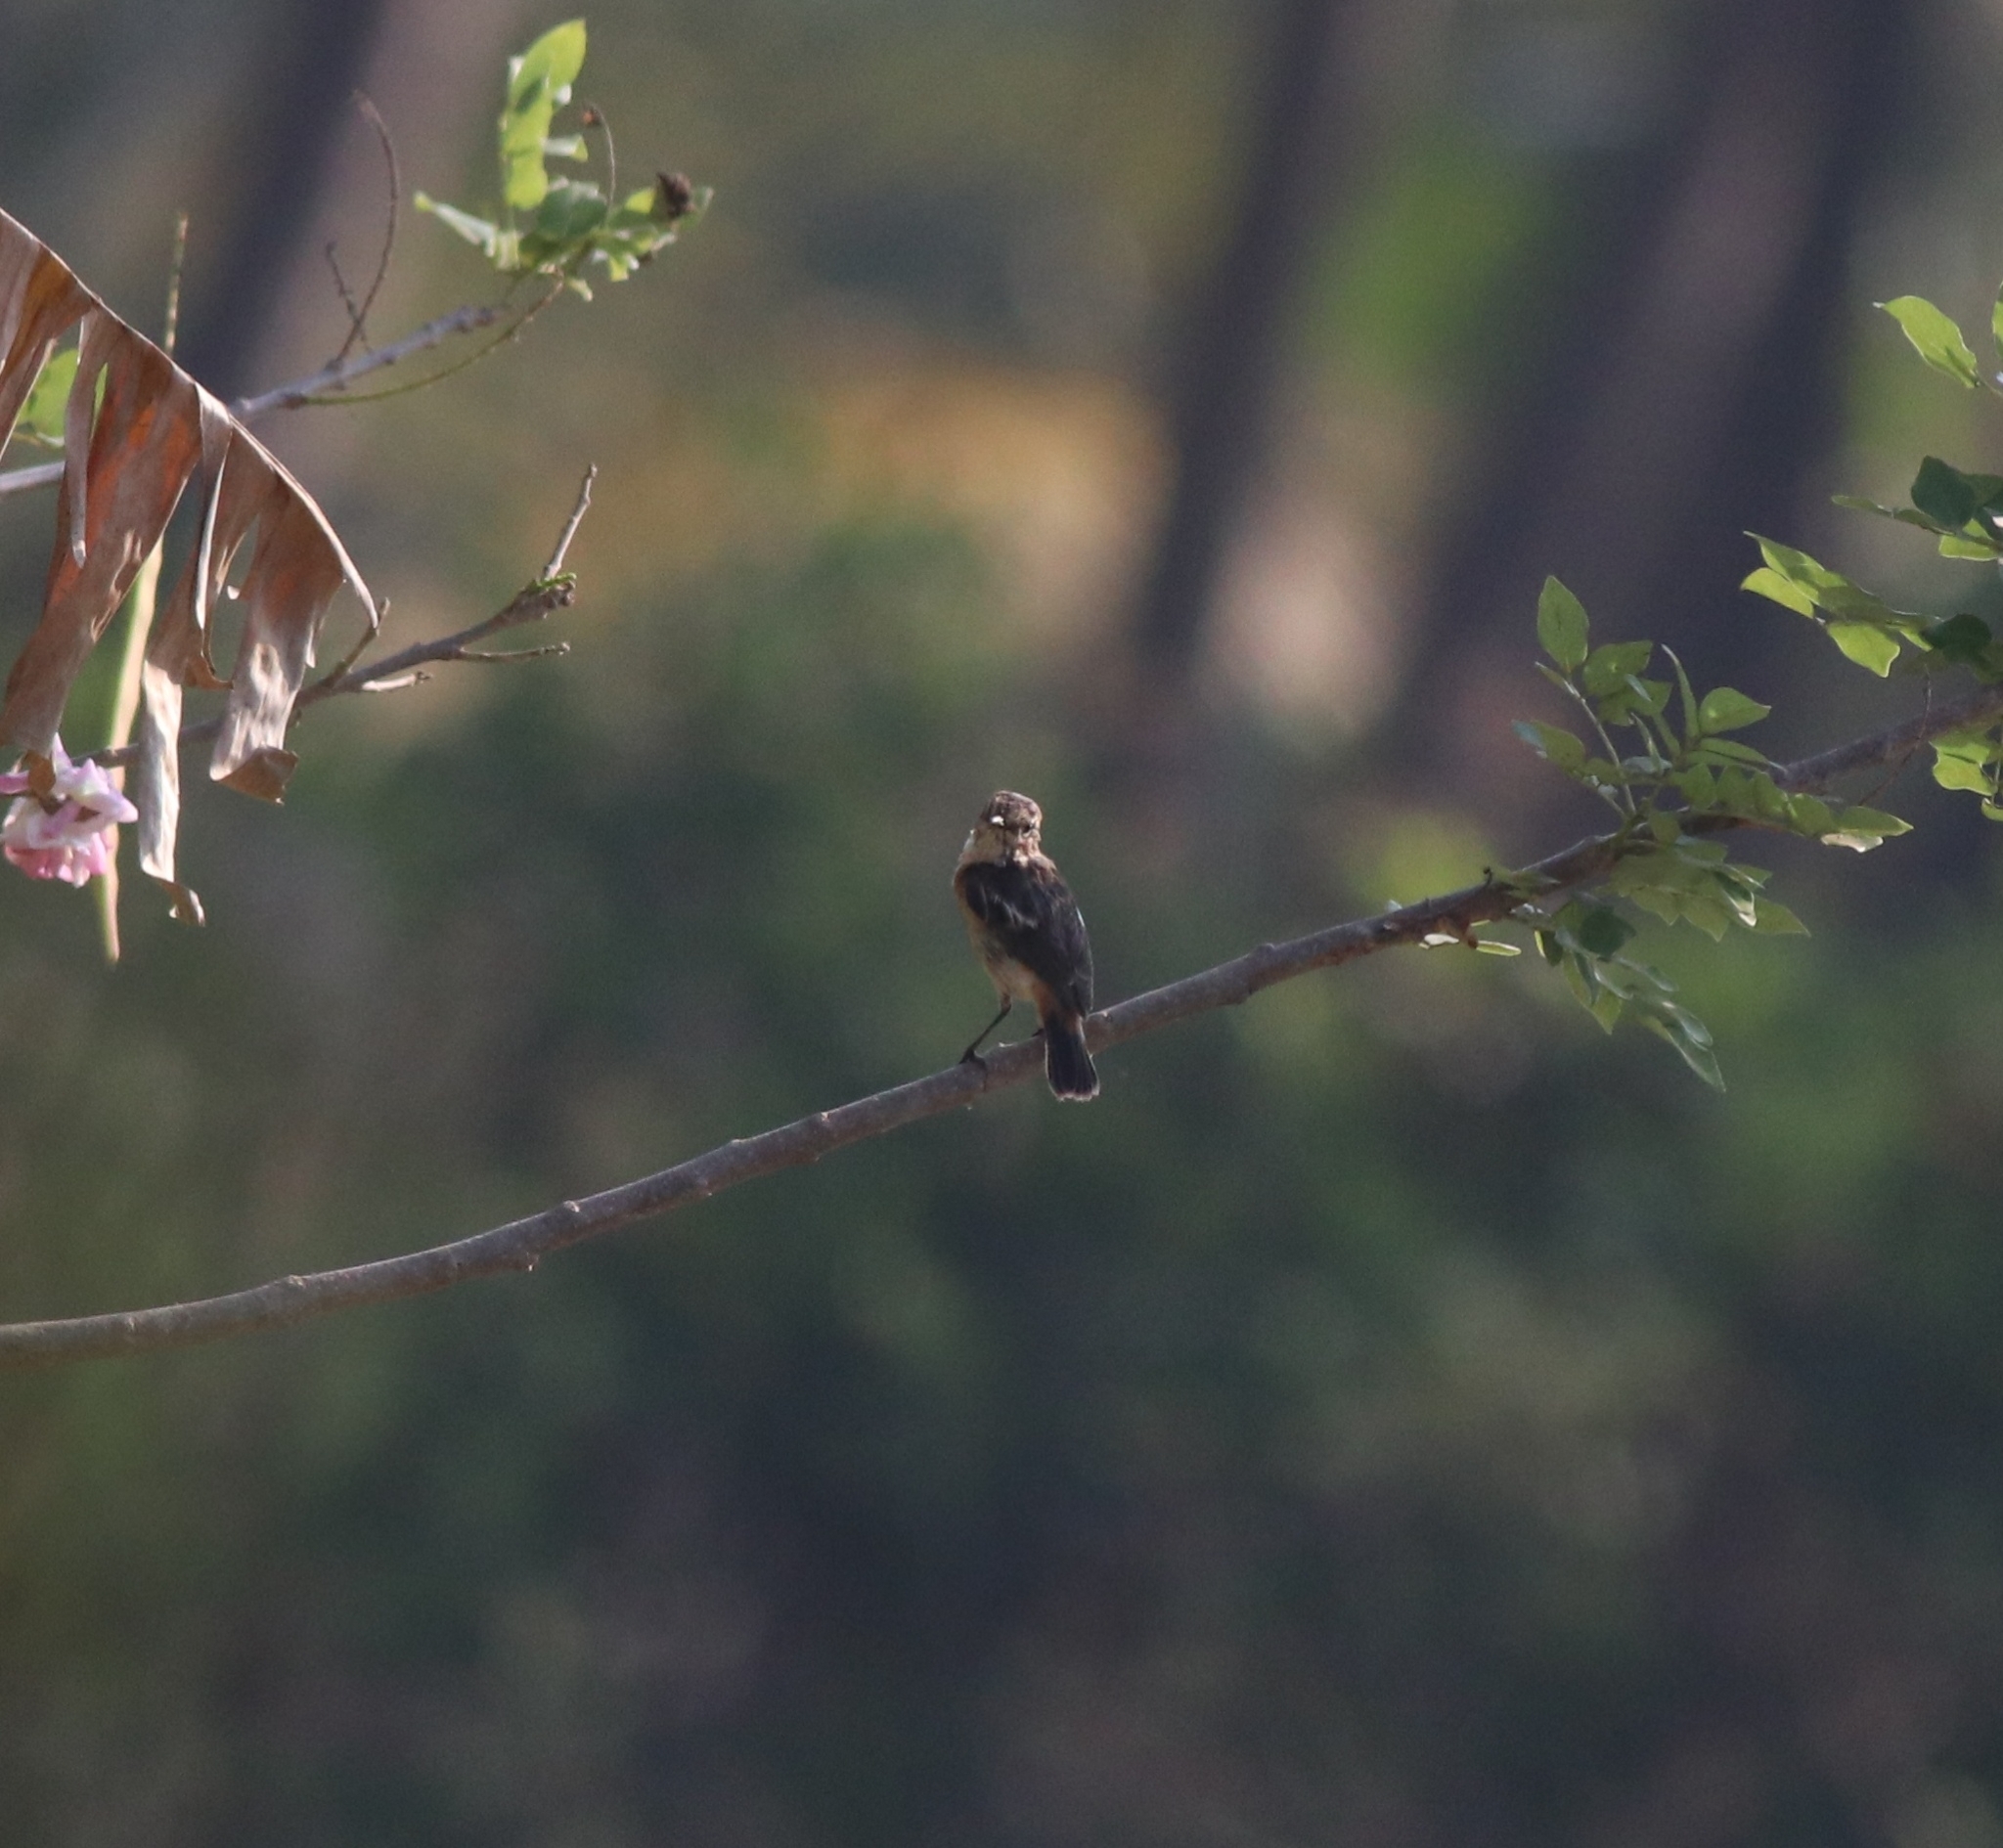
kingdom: Animalia
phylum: Chordata
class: Aves
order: Passeriformes
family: Muscicapidae
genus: Saxicola
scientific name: Saxicola maurus
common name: Siberian stonechat
